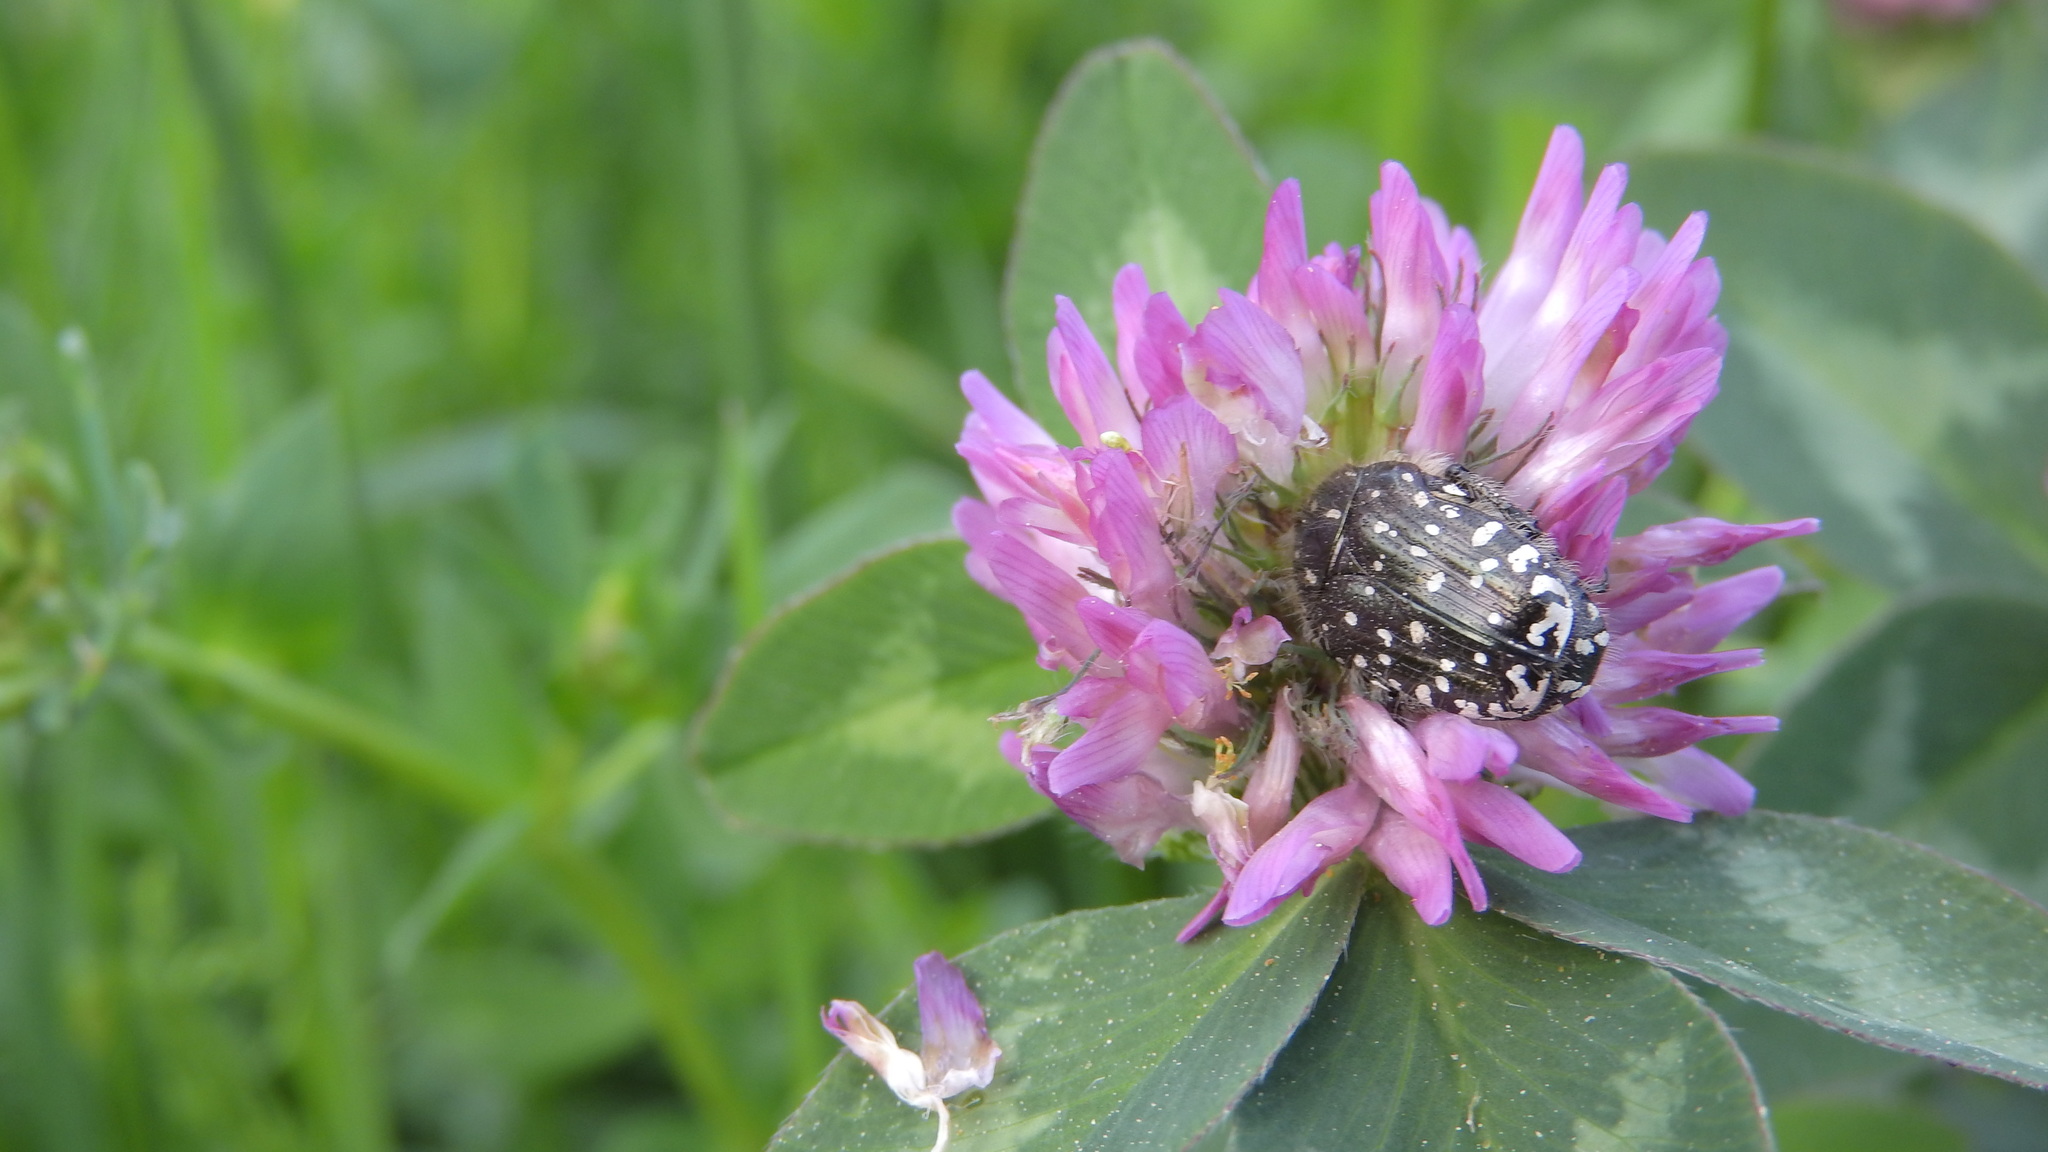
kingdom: Animalia
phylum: Arthropoda
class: Insecta
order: Coleoptera
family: Scarabaeidae
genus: Oxythyrea
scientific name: Oxythyrea funesta
